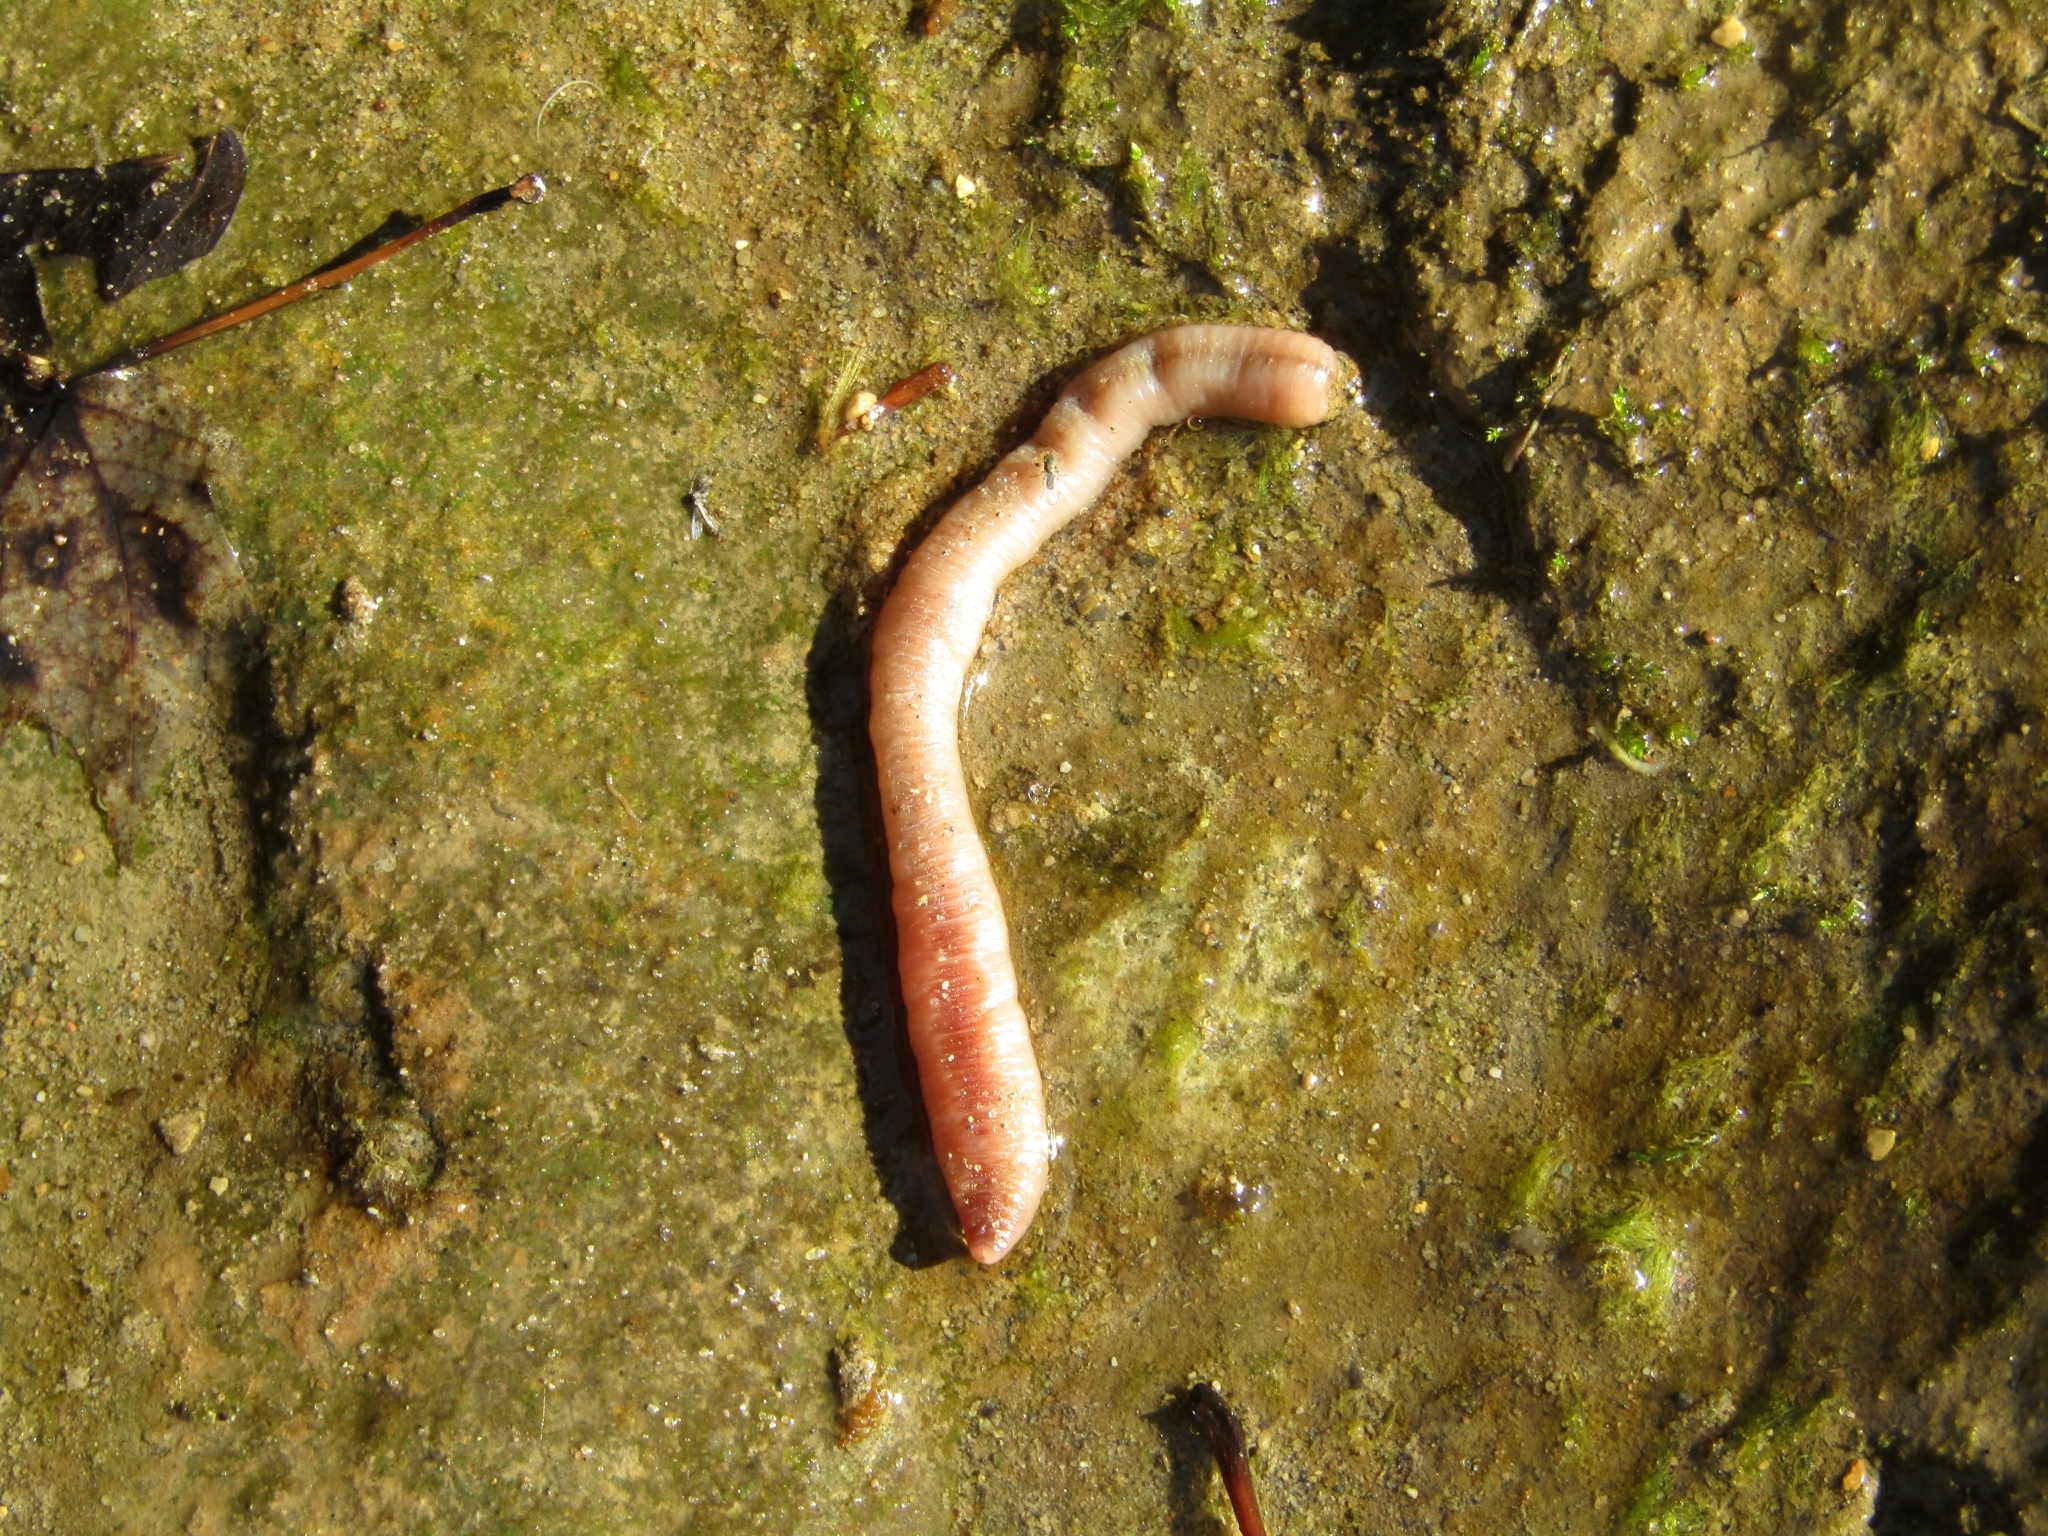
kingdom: Animalia
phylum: Annelida
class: Clitellata
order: Crassiclitellata
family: Lumbricidae
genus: Lumbricus
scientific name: Lumbricus terrestris
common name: Common earthworm
